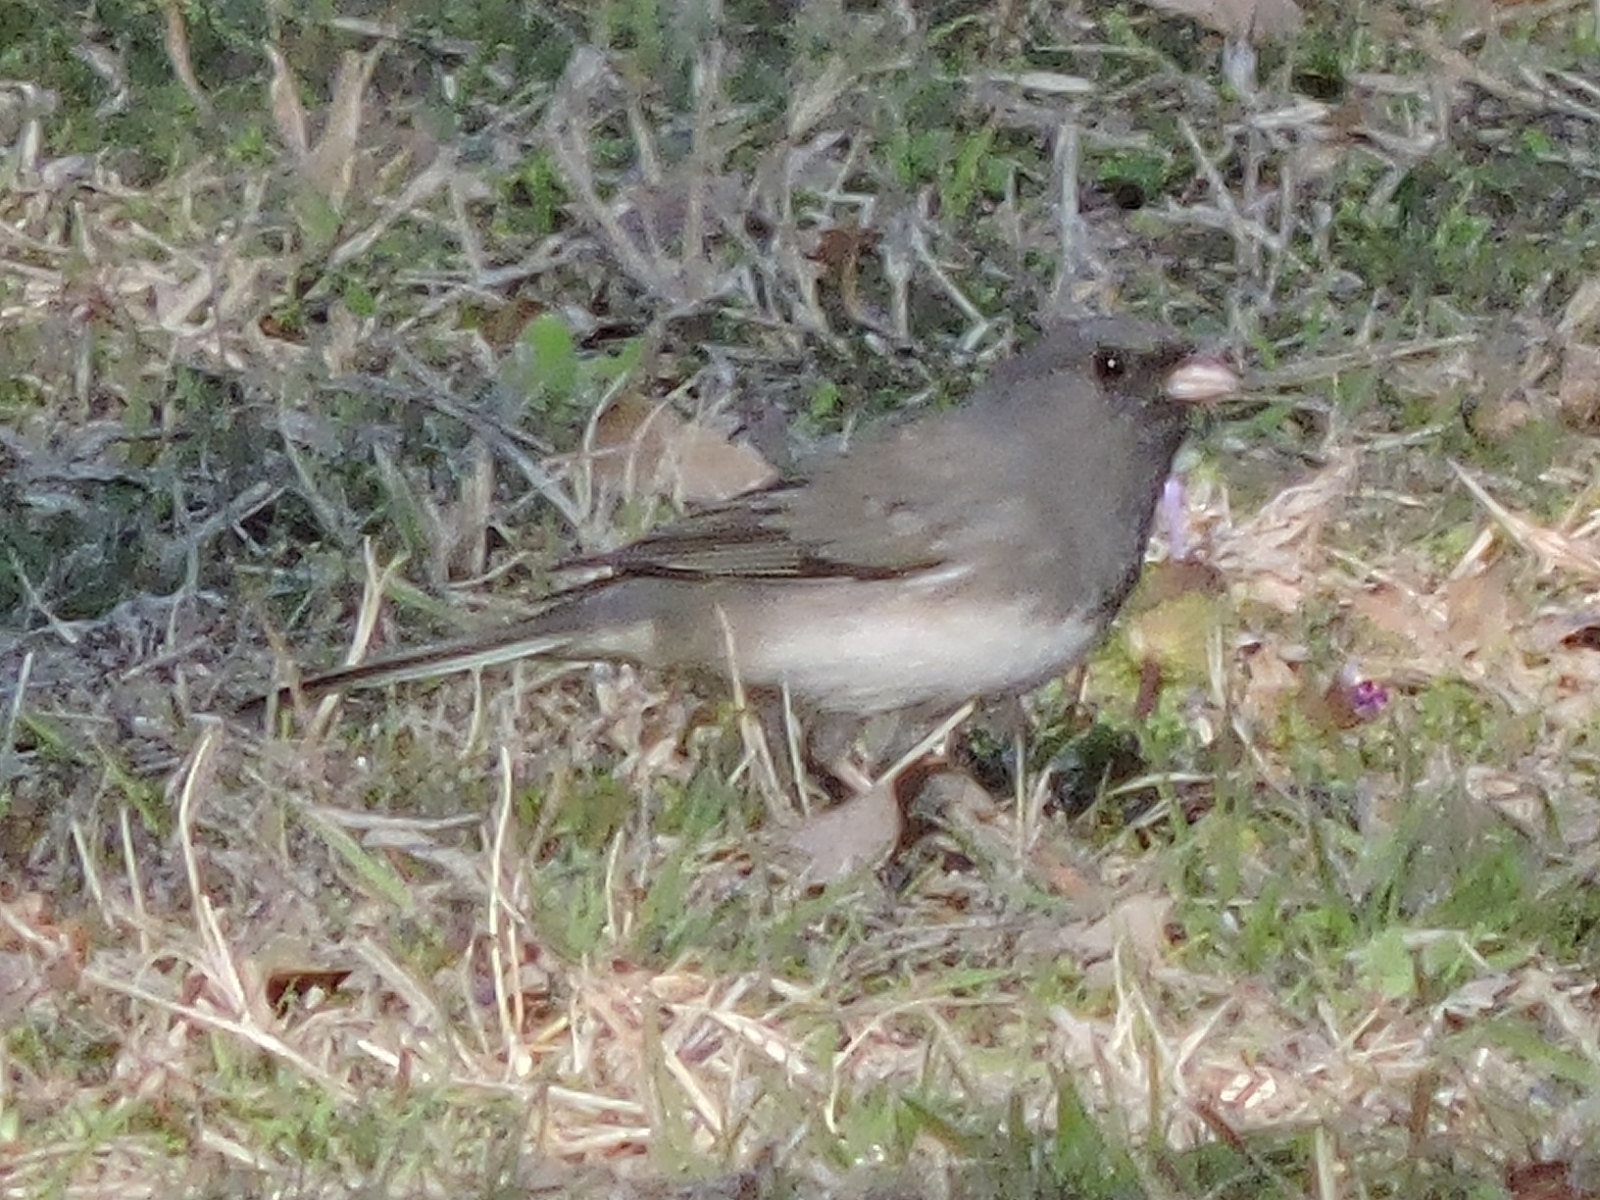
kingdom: Animalia
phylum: Chordata
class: Aves
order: Passeriformes
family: Passerellidae
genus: Junco
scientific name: Junco hyemalis
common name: Dark-eyed junco
